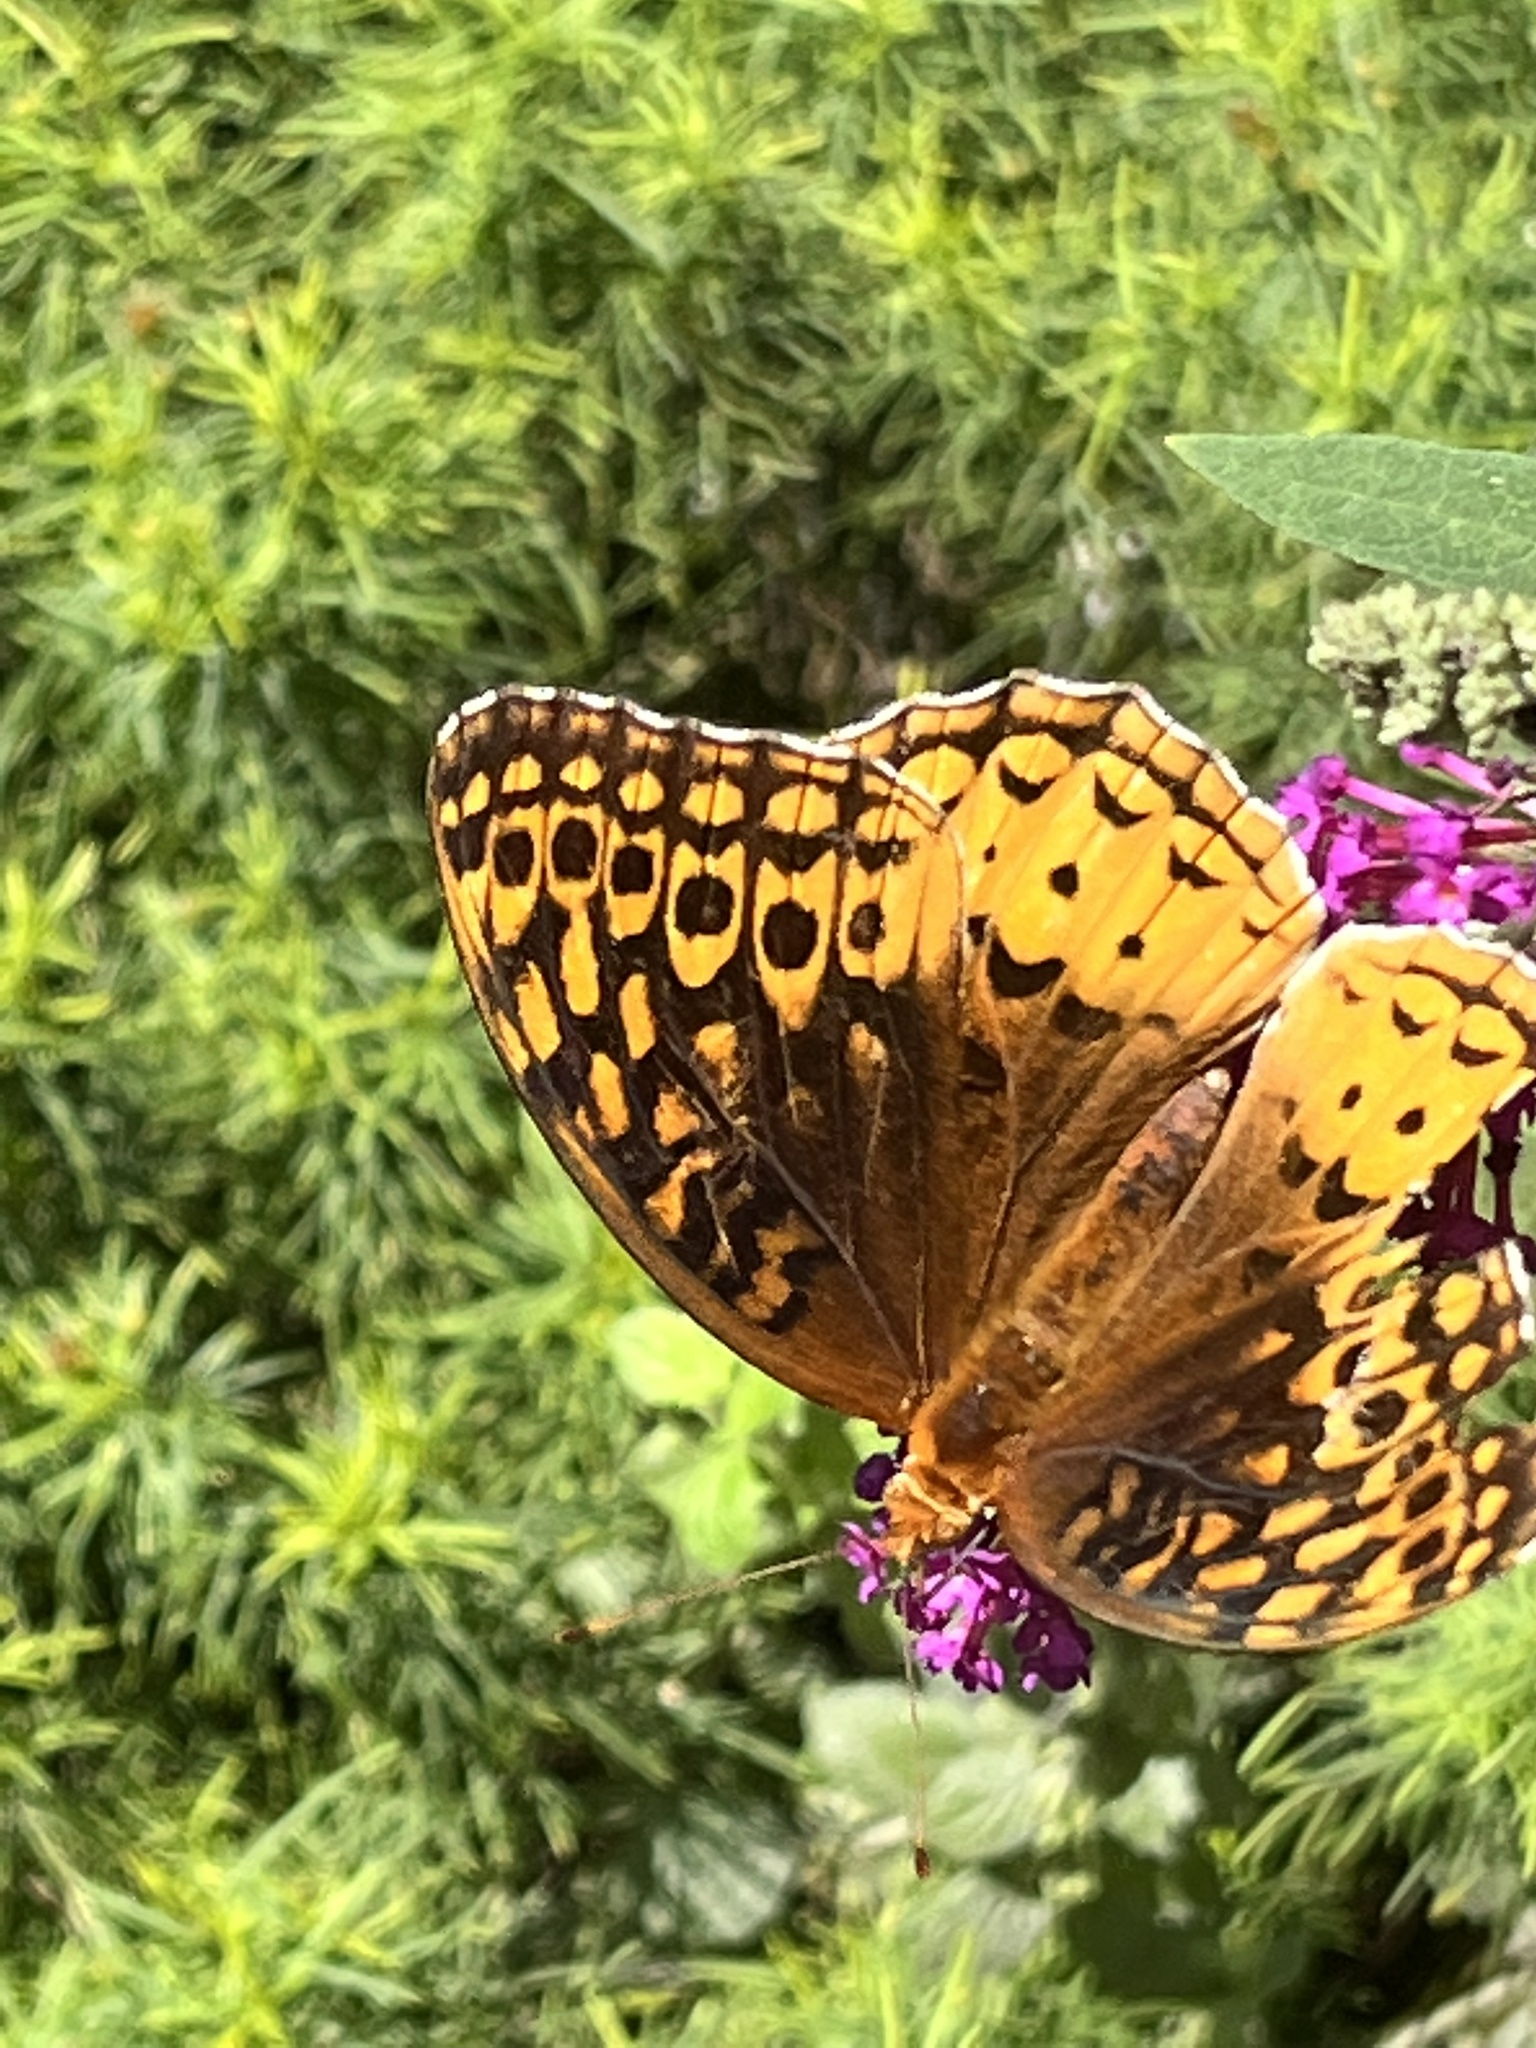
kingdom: Animalia
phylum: Arthropoda
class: Insecta
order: Lepidoptera
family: Nymphalidae
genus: Speyeria
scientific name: Speyeria cybele
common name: Great spangled fritillary
